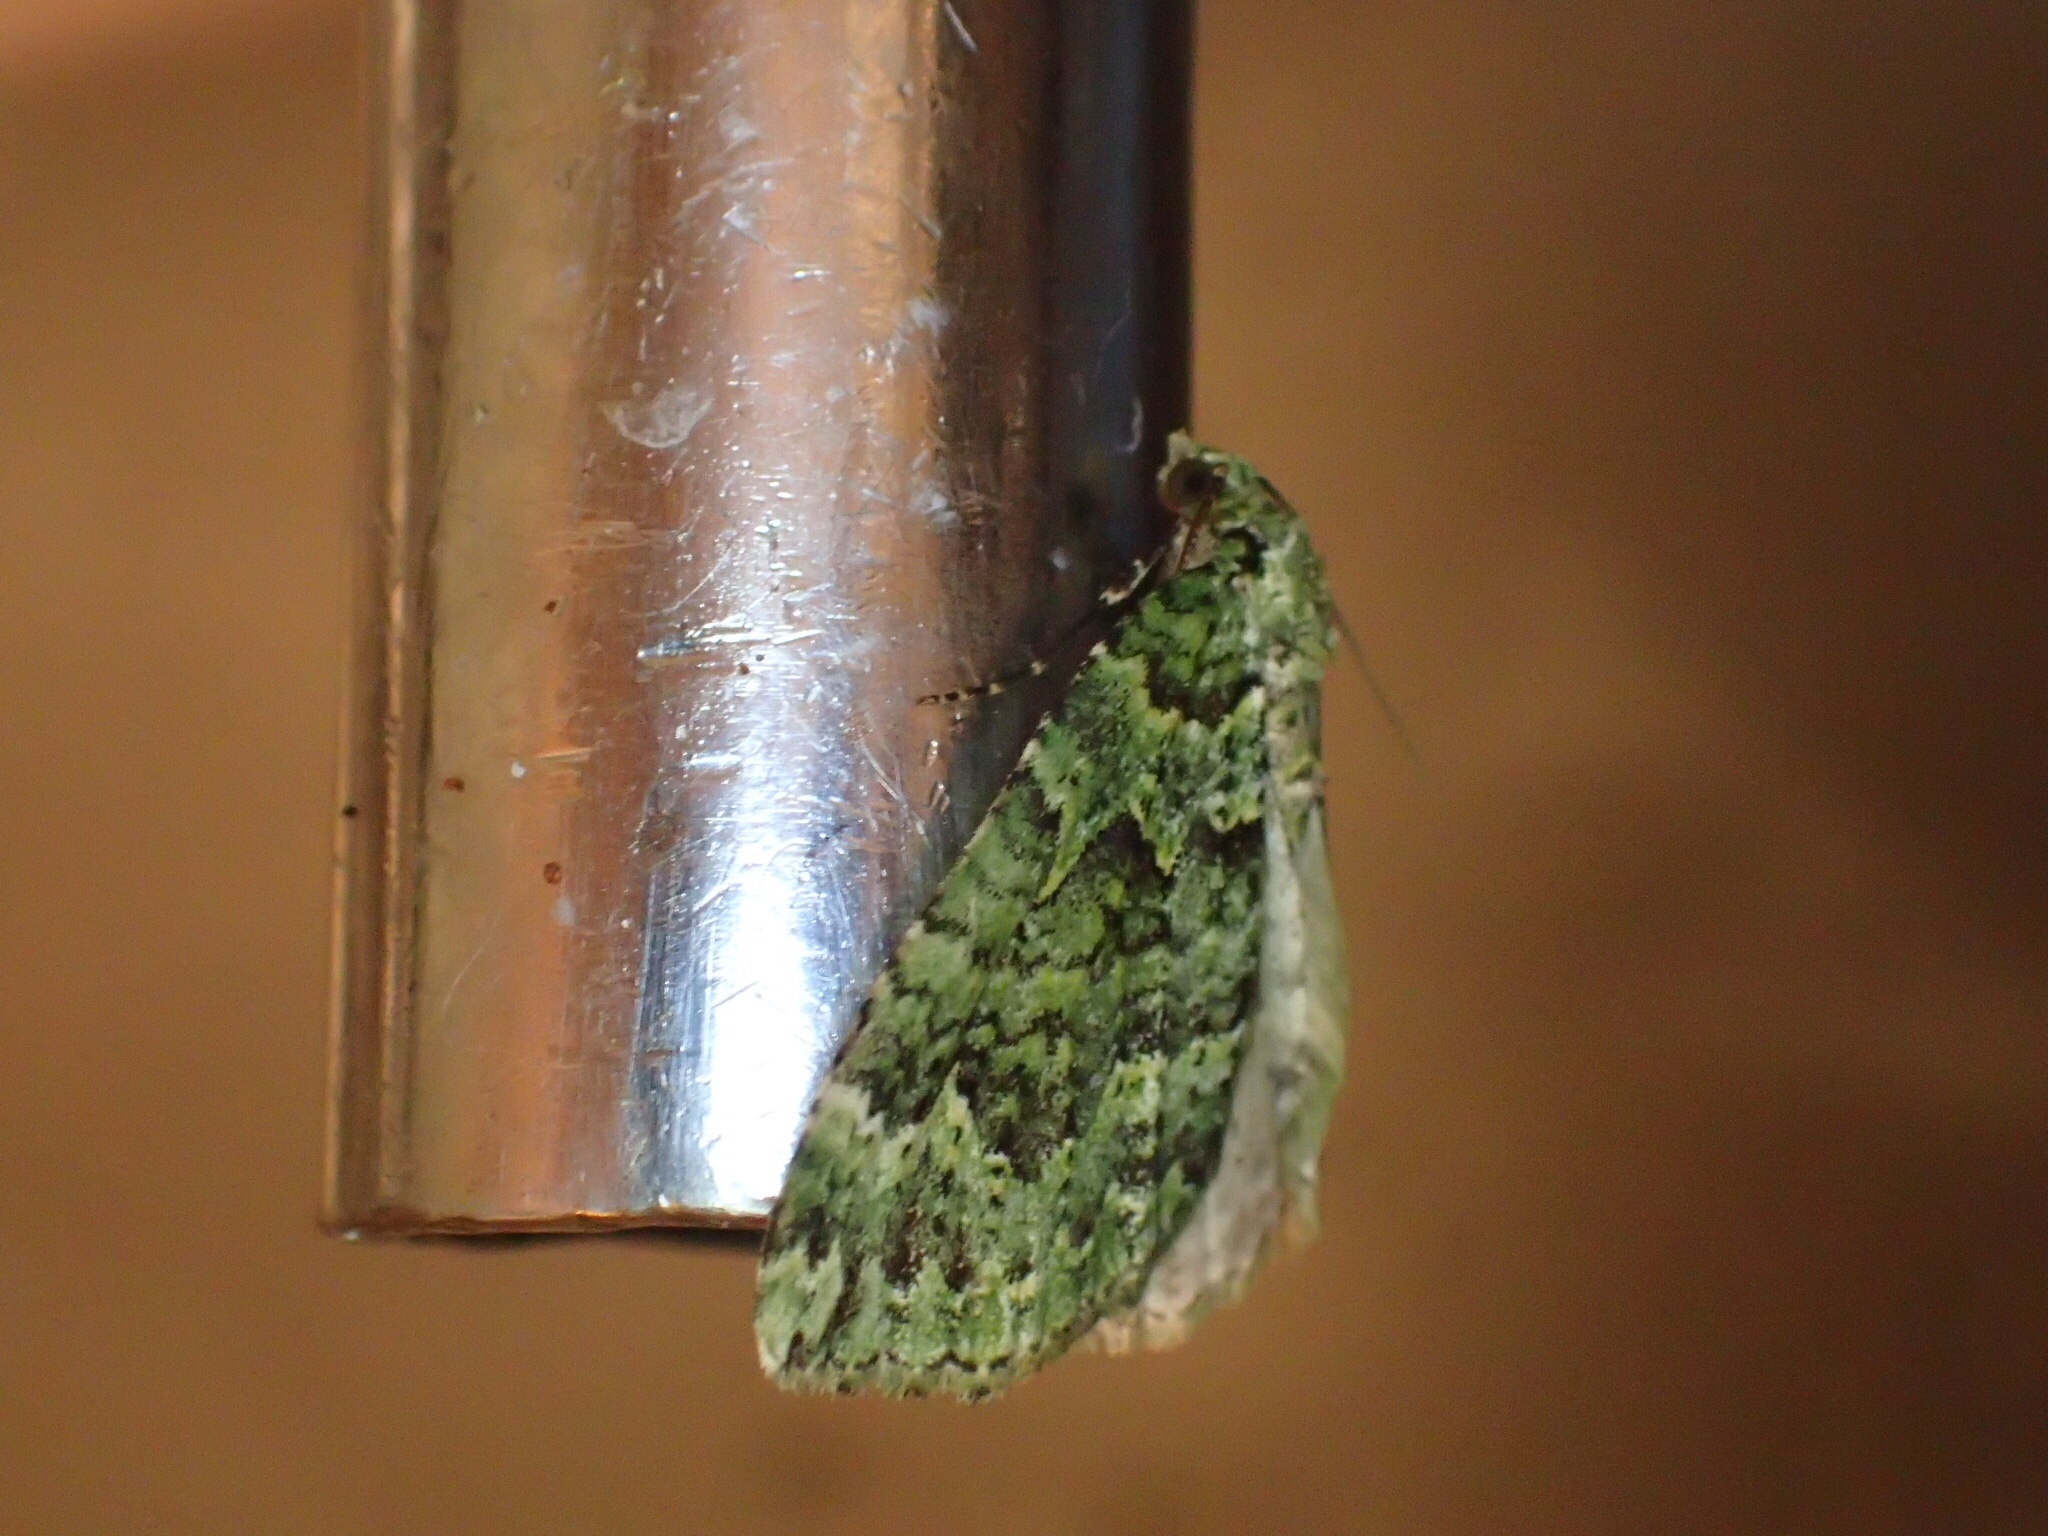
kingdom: Animalia
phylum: Arthropoda
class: Insecta
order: Lepidoptera
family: Geometridae
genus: Austrocidaria
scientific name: Austrocidaria callichlora
